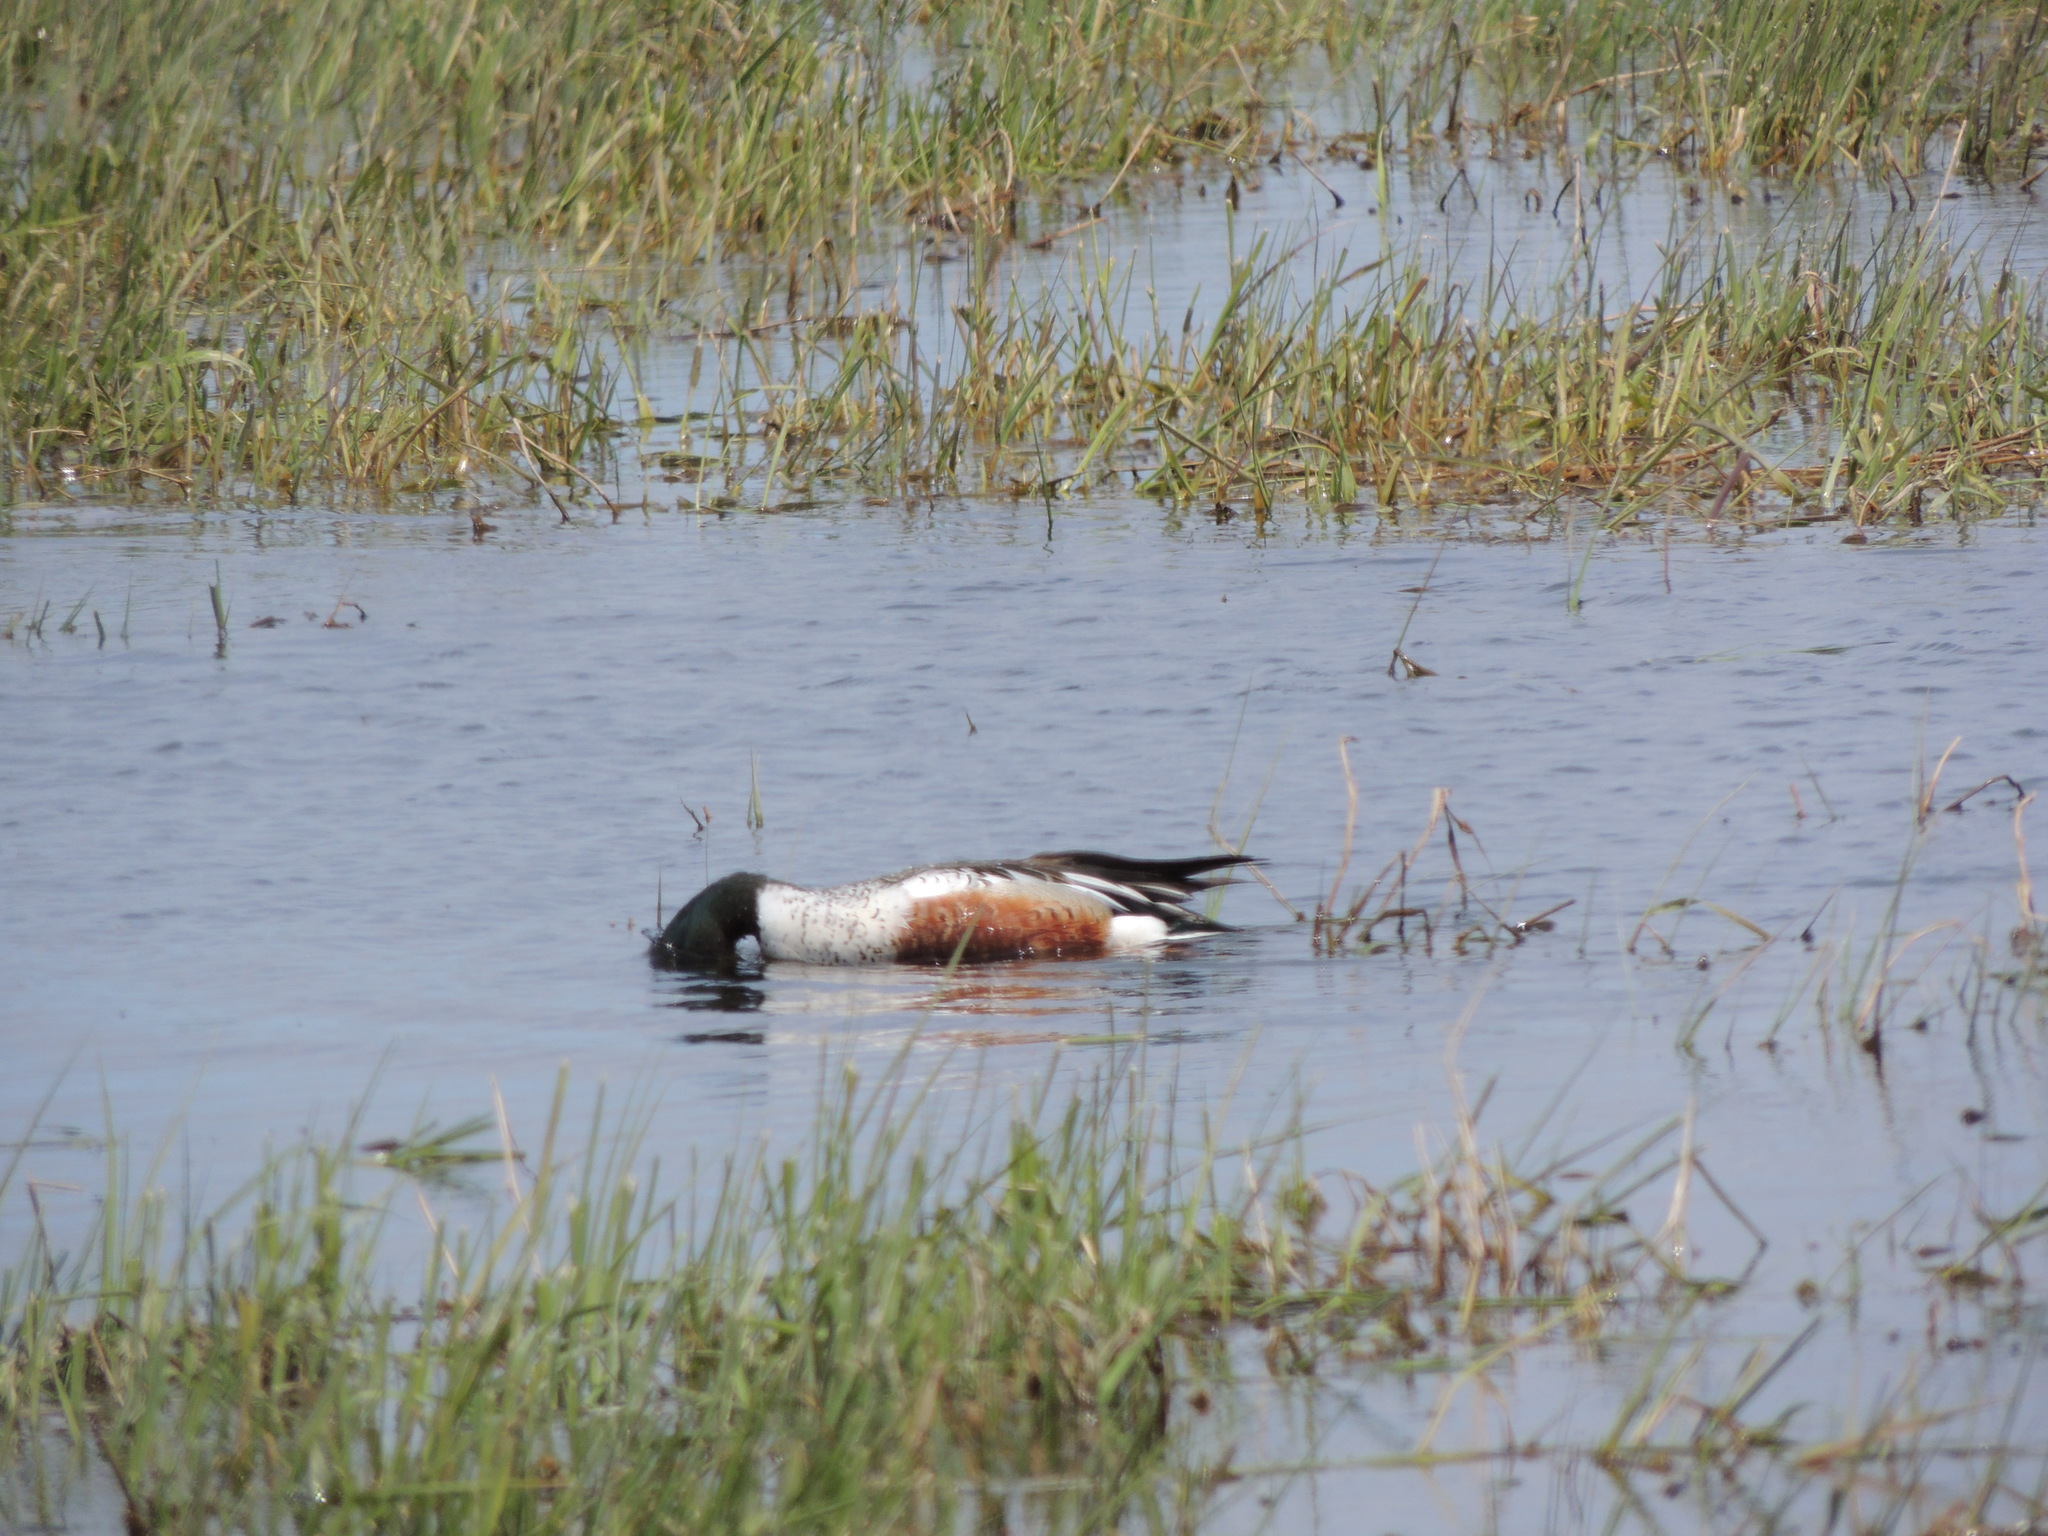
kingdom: Animalia
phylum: Chordata
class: Aves
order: Anseriformes
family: Anatidae
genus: Spatula
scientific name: Spatula clypeata
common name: Northern shoveler
